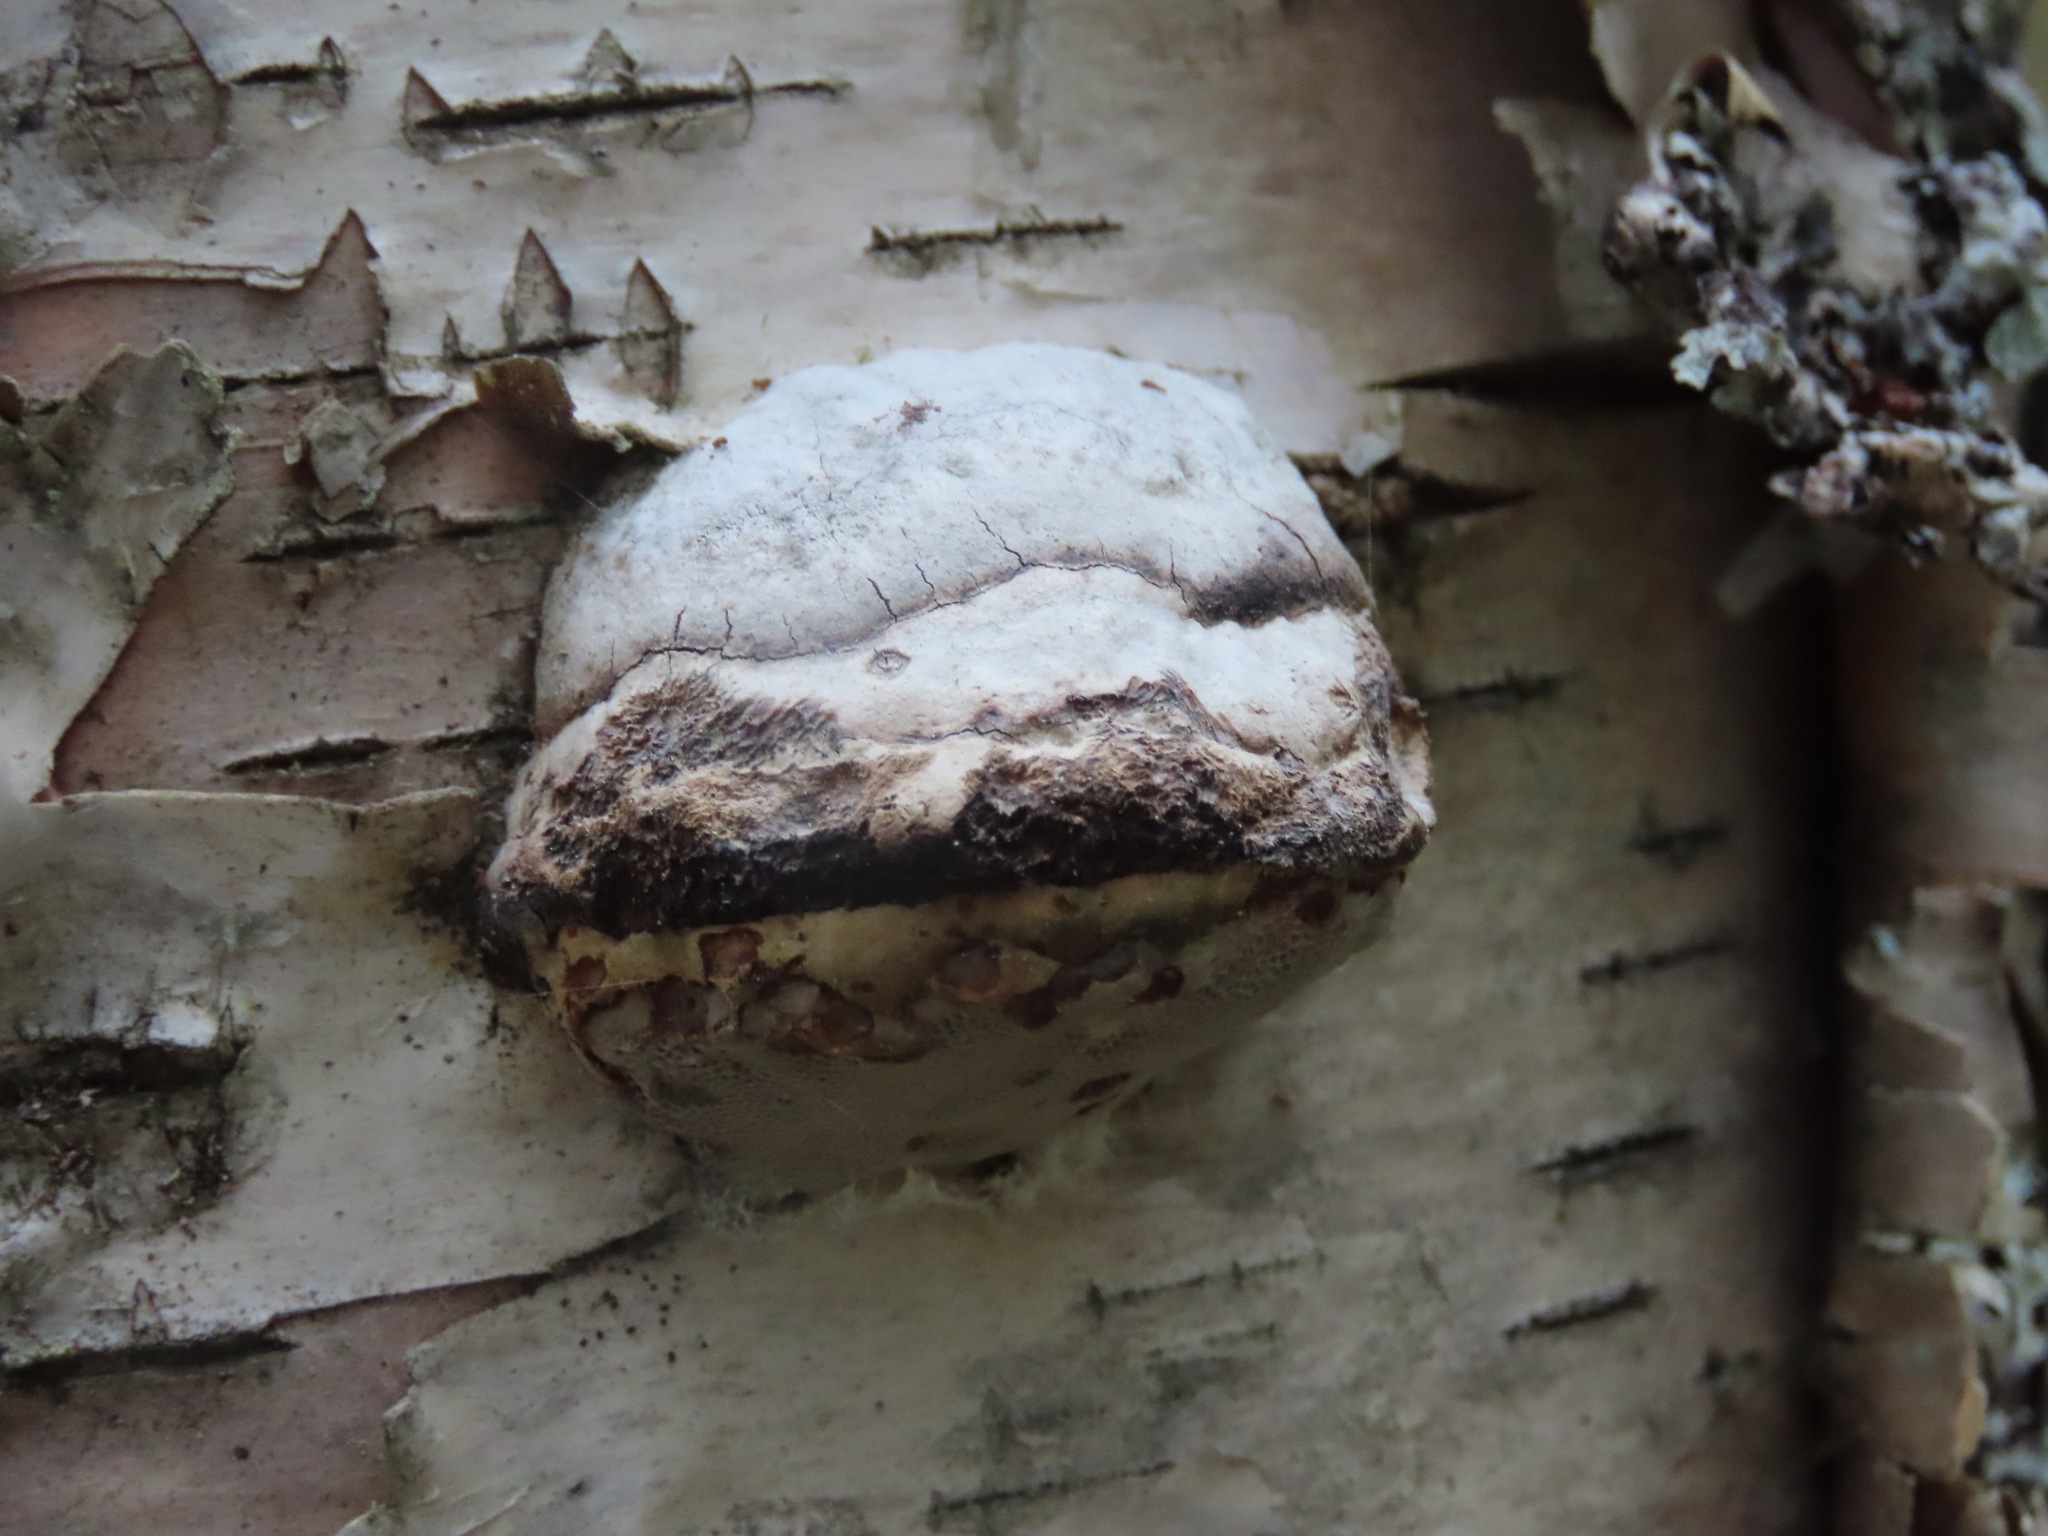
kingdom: Fungi
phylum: Basidiomycota
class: Agaricomycetes
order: Polyporales
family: Polyporaceae
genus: Fomes
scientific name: Fomes fomentarius
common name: Hoof fungus
